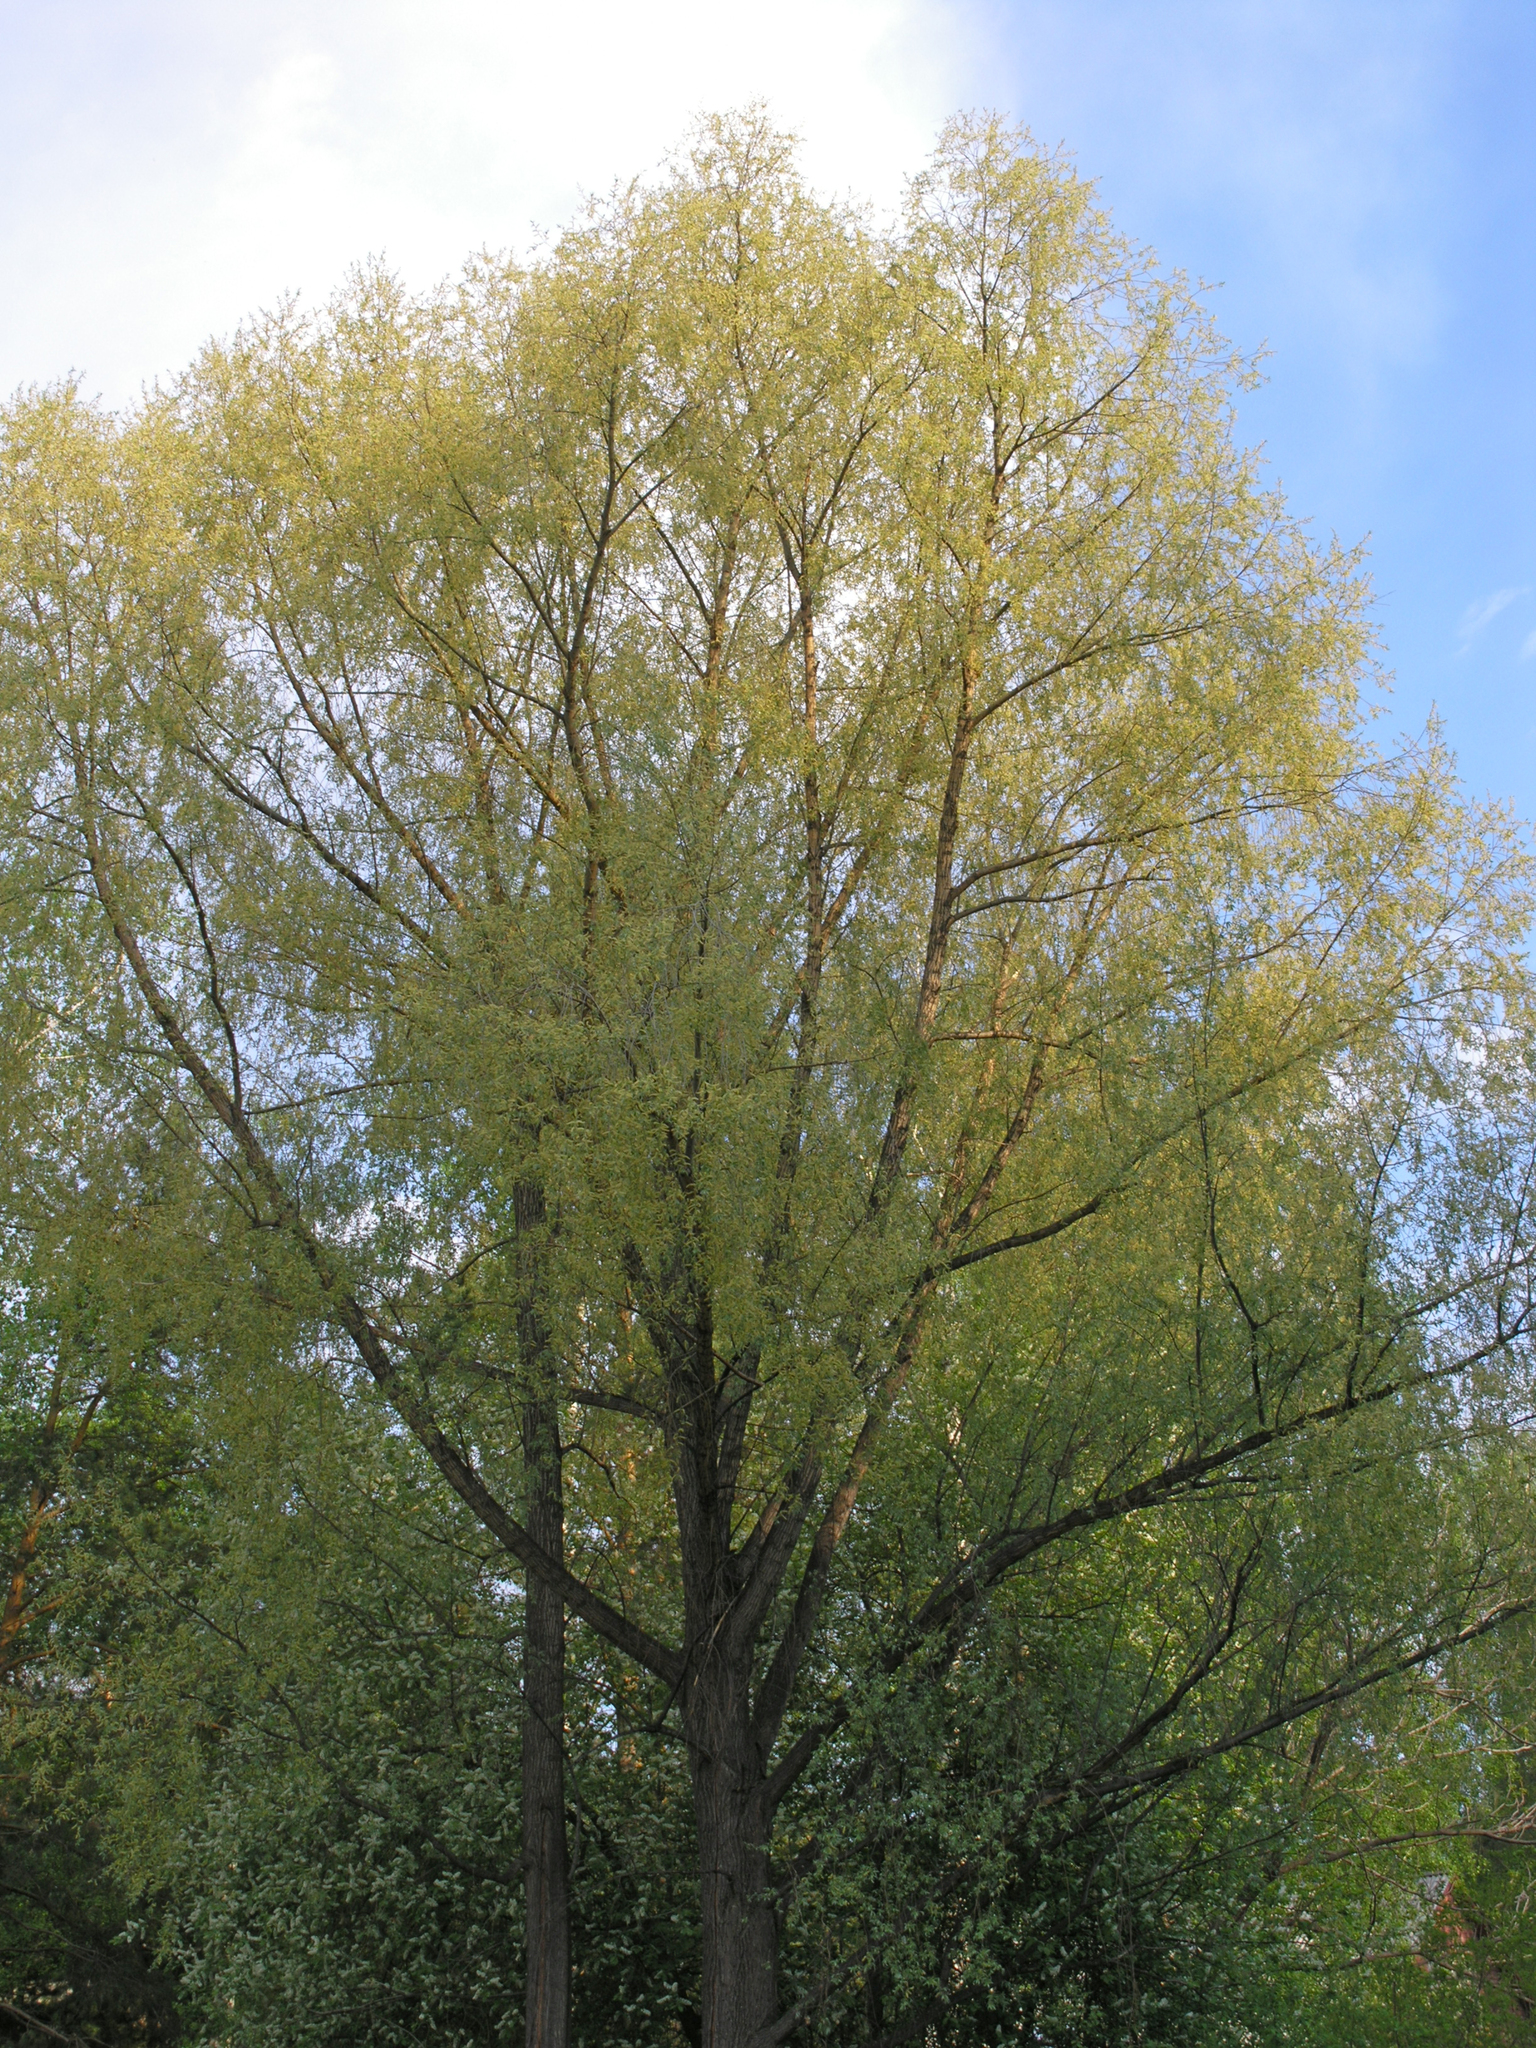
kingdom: Plantae
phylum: Tracheophyta
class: Magnoliopsida
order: Malpighiales
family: Salicaceae
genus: Salix
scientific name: Salix alba
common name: White willow
